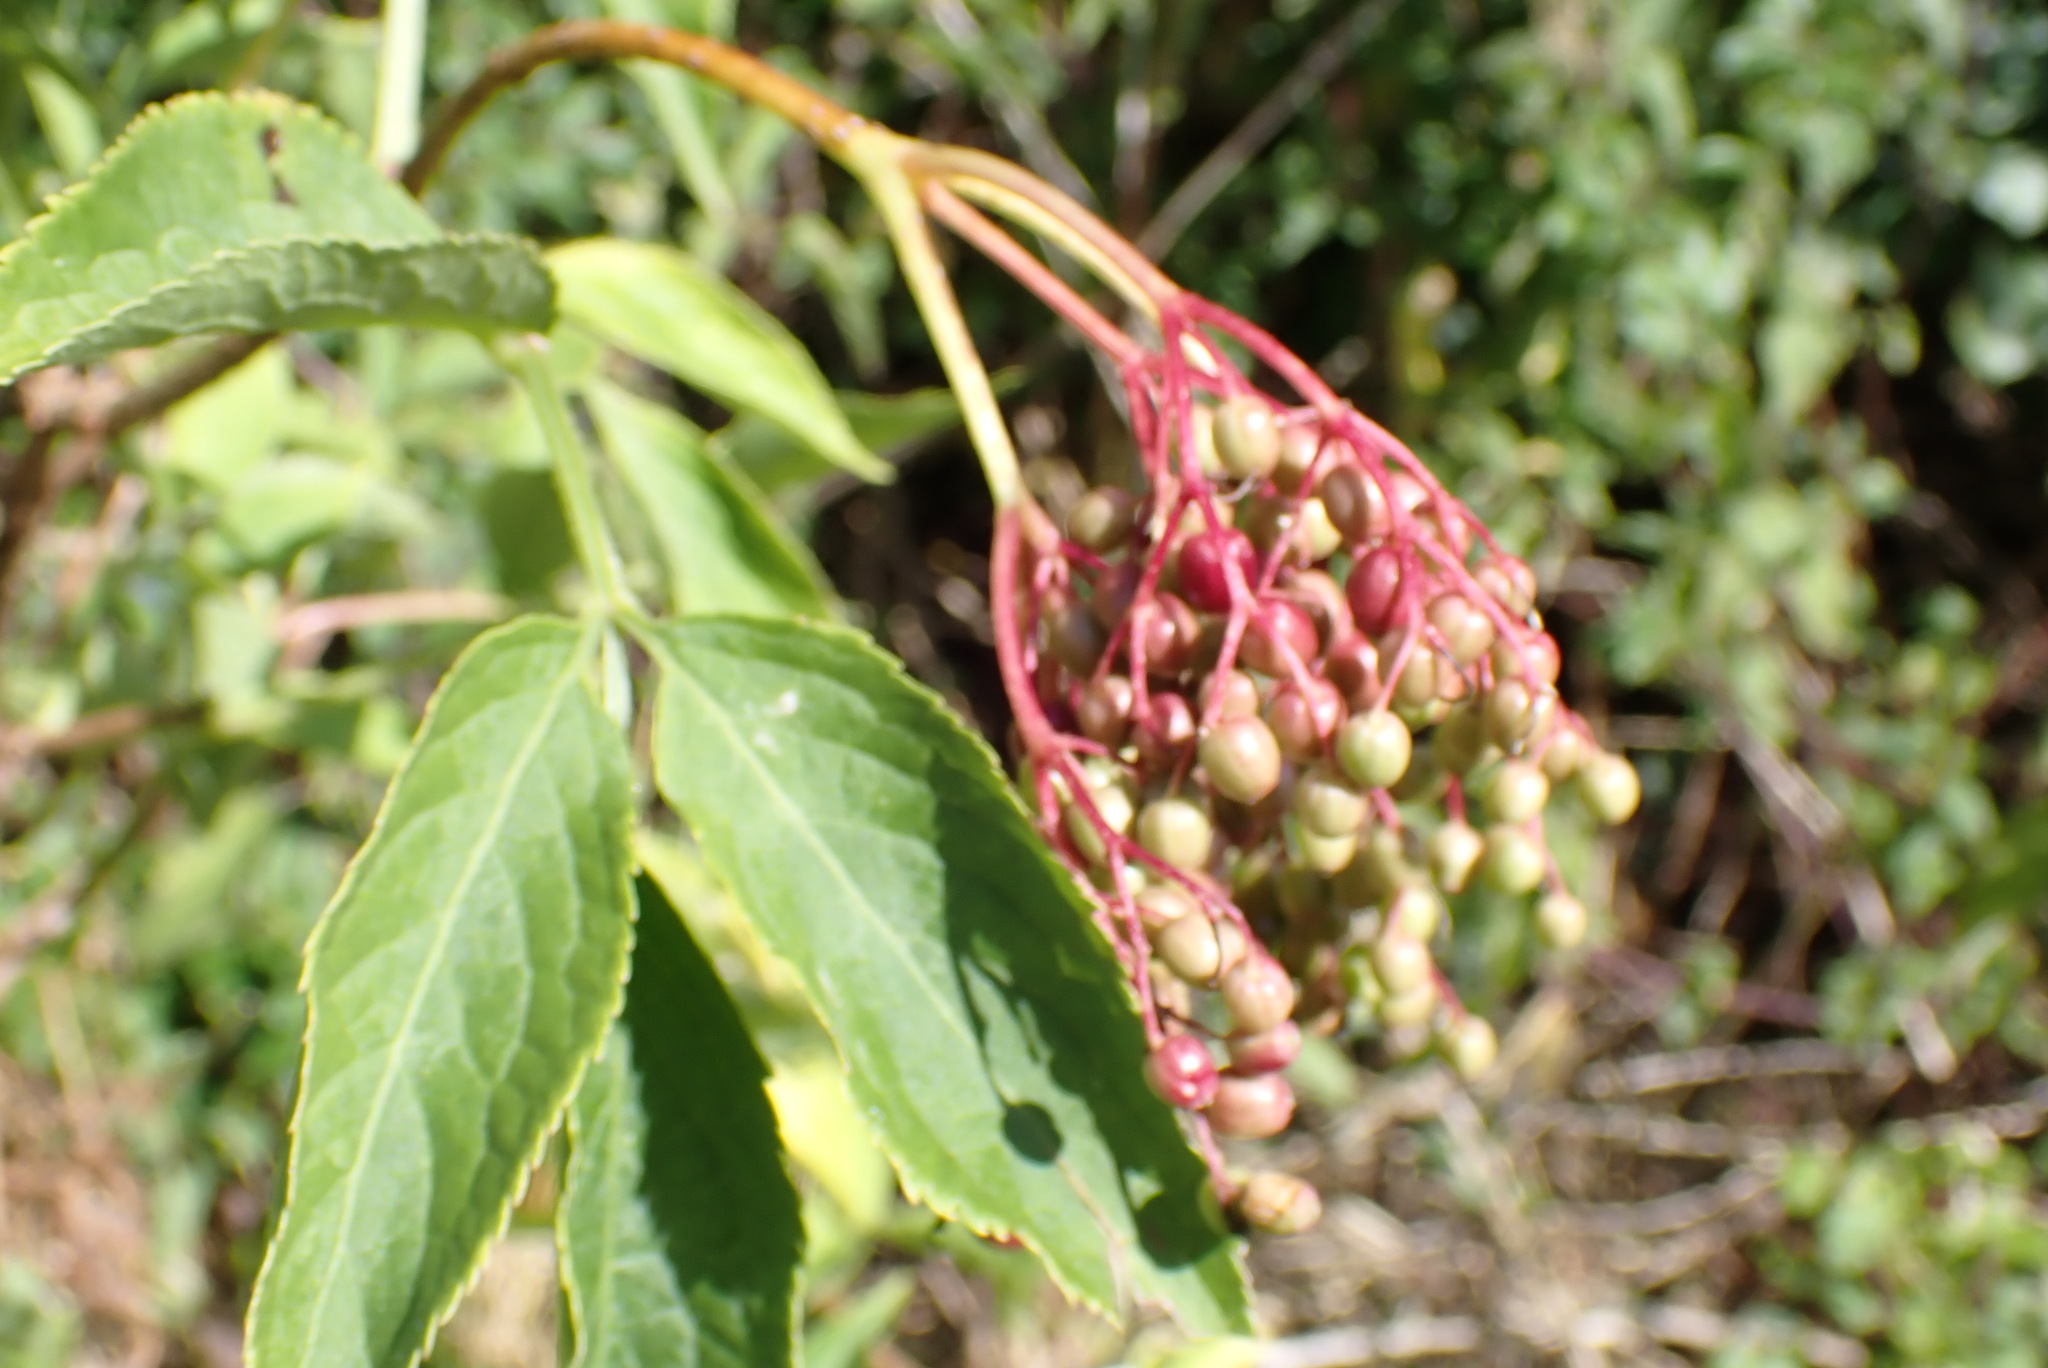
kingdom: Plantae
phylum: Tracheophyta
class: Magnoliopsida
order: Dipsacales
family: Viburnaceae
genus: Sambucus
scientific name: Sambucus nigra
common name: Elder
